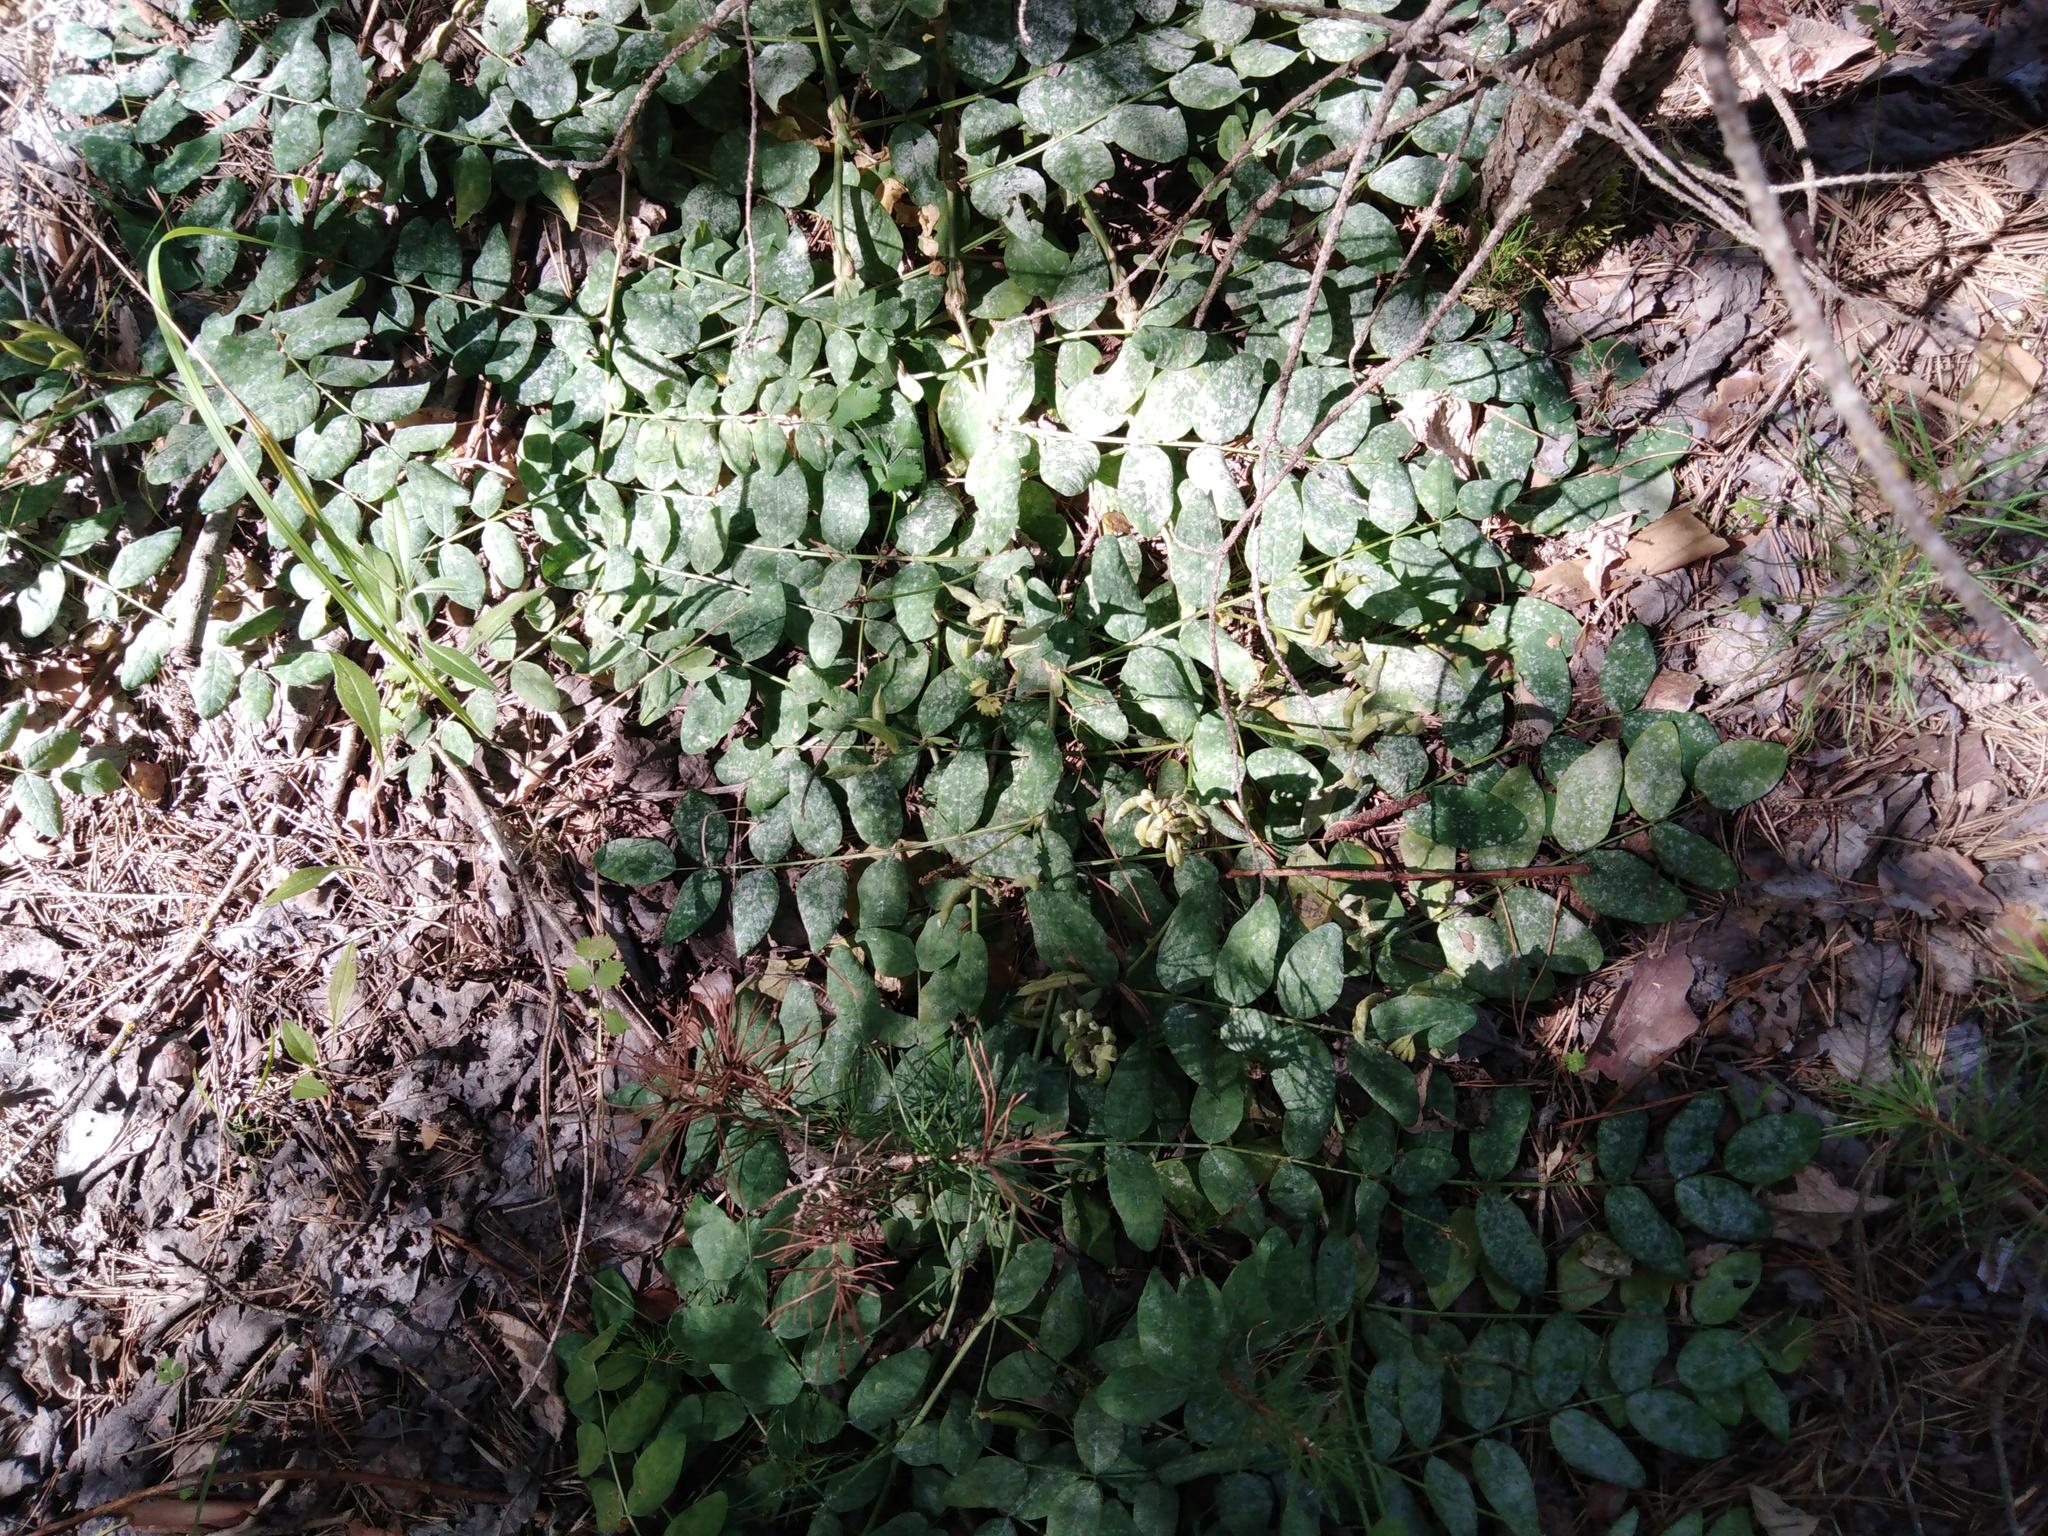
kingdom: Plantae
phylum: Tracheophyta
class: Magnoliopsida
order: Fabales
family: Fabaceae
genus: Astragalus
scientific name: Astragalus glycyphyllos
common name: Wild liquorice
